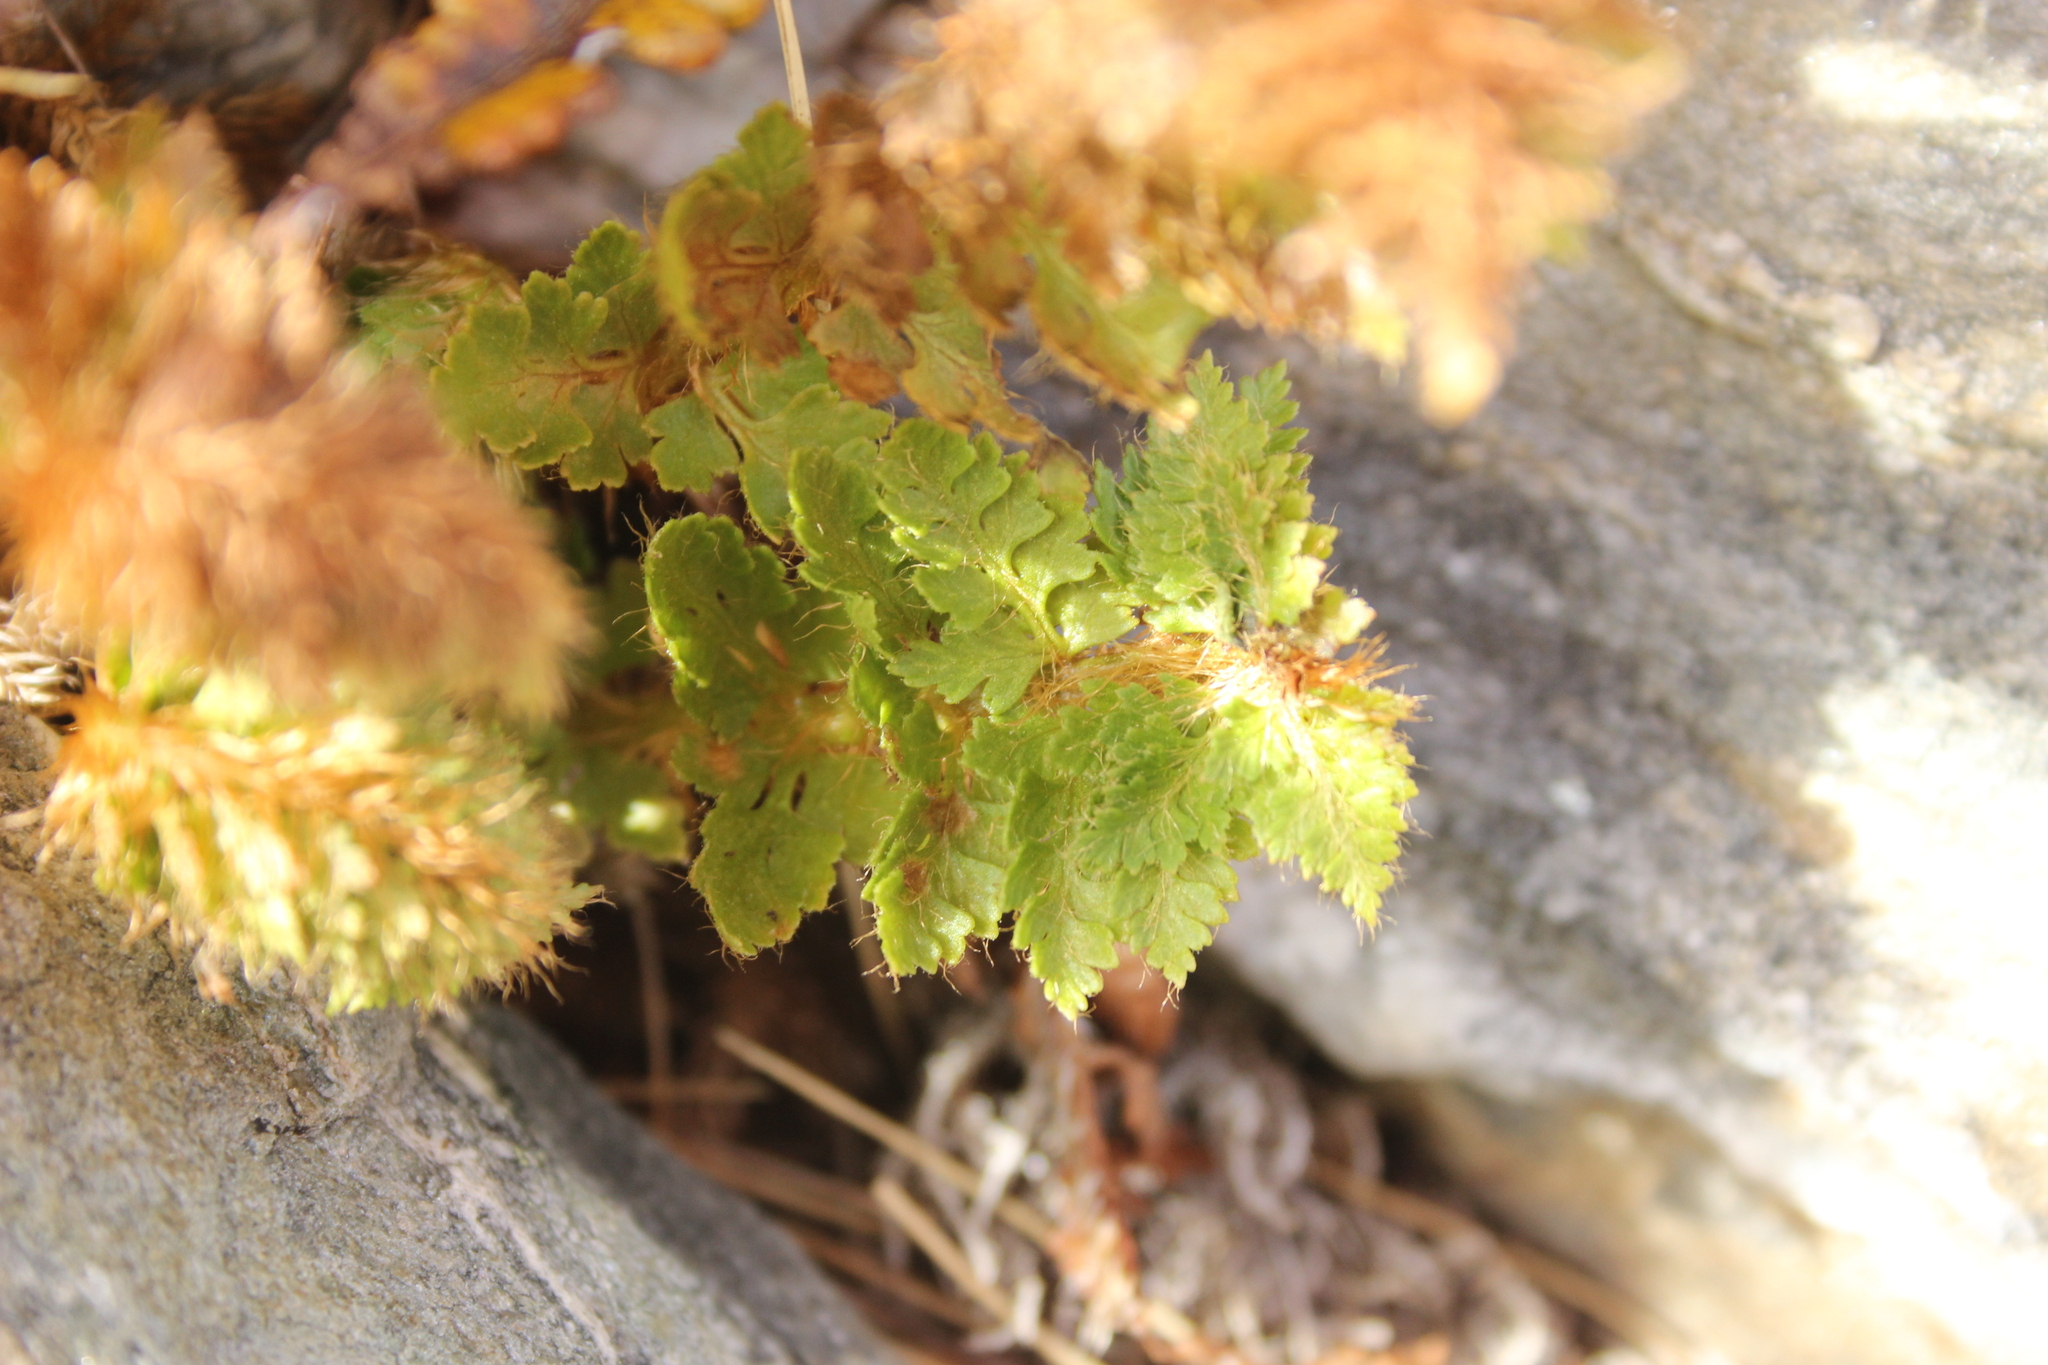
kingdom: Plantae
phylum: Tracheophyta
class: Polypodiopsida
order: Polypodiales
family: Dryopteridaceae
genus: Polystichum
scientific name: Polystichum cystostegia
